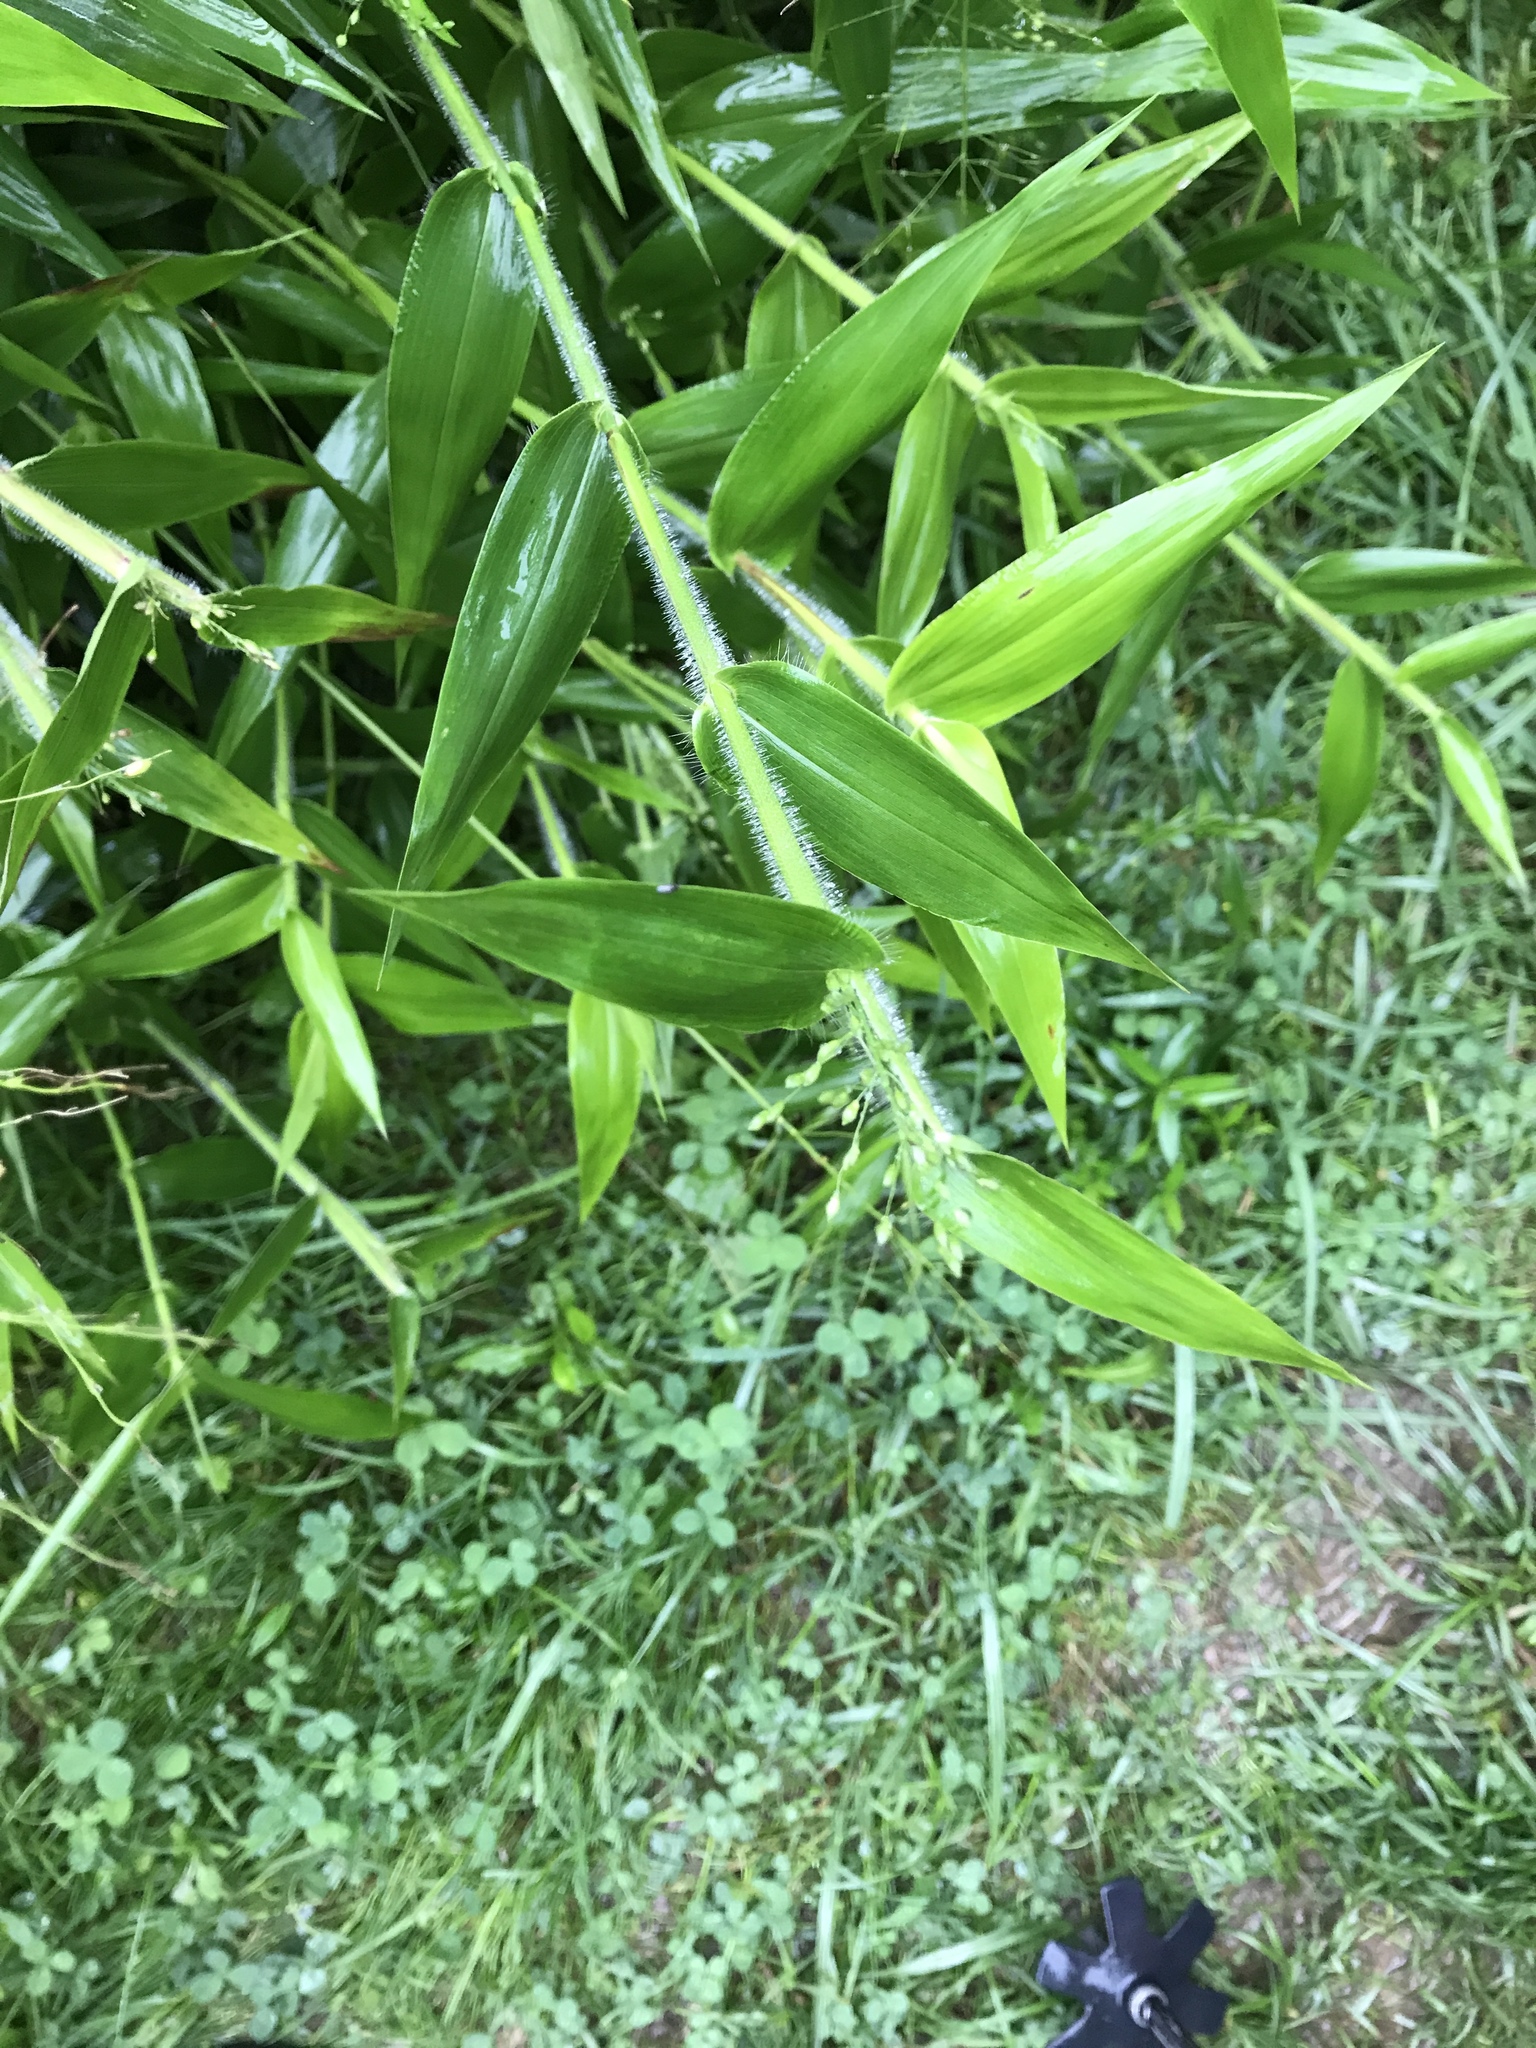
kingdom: Plantae
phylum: Tracheophyta
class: Liliopsida
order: Poales
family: Poaceae
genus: Dichanthelium
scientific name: Dichanthelium clandestinum
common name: Deer-tongue grass
